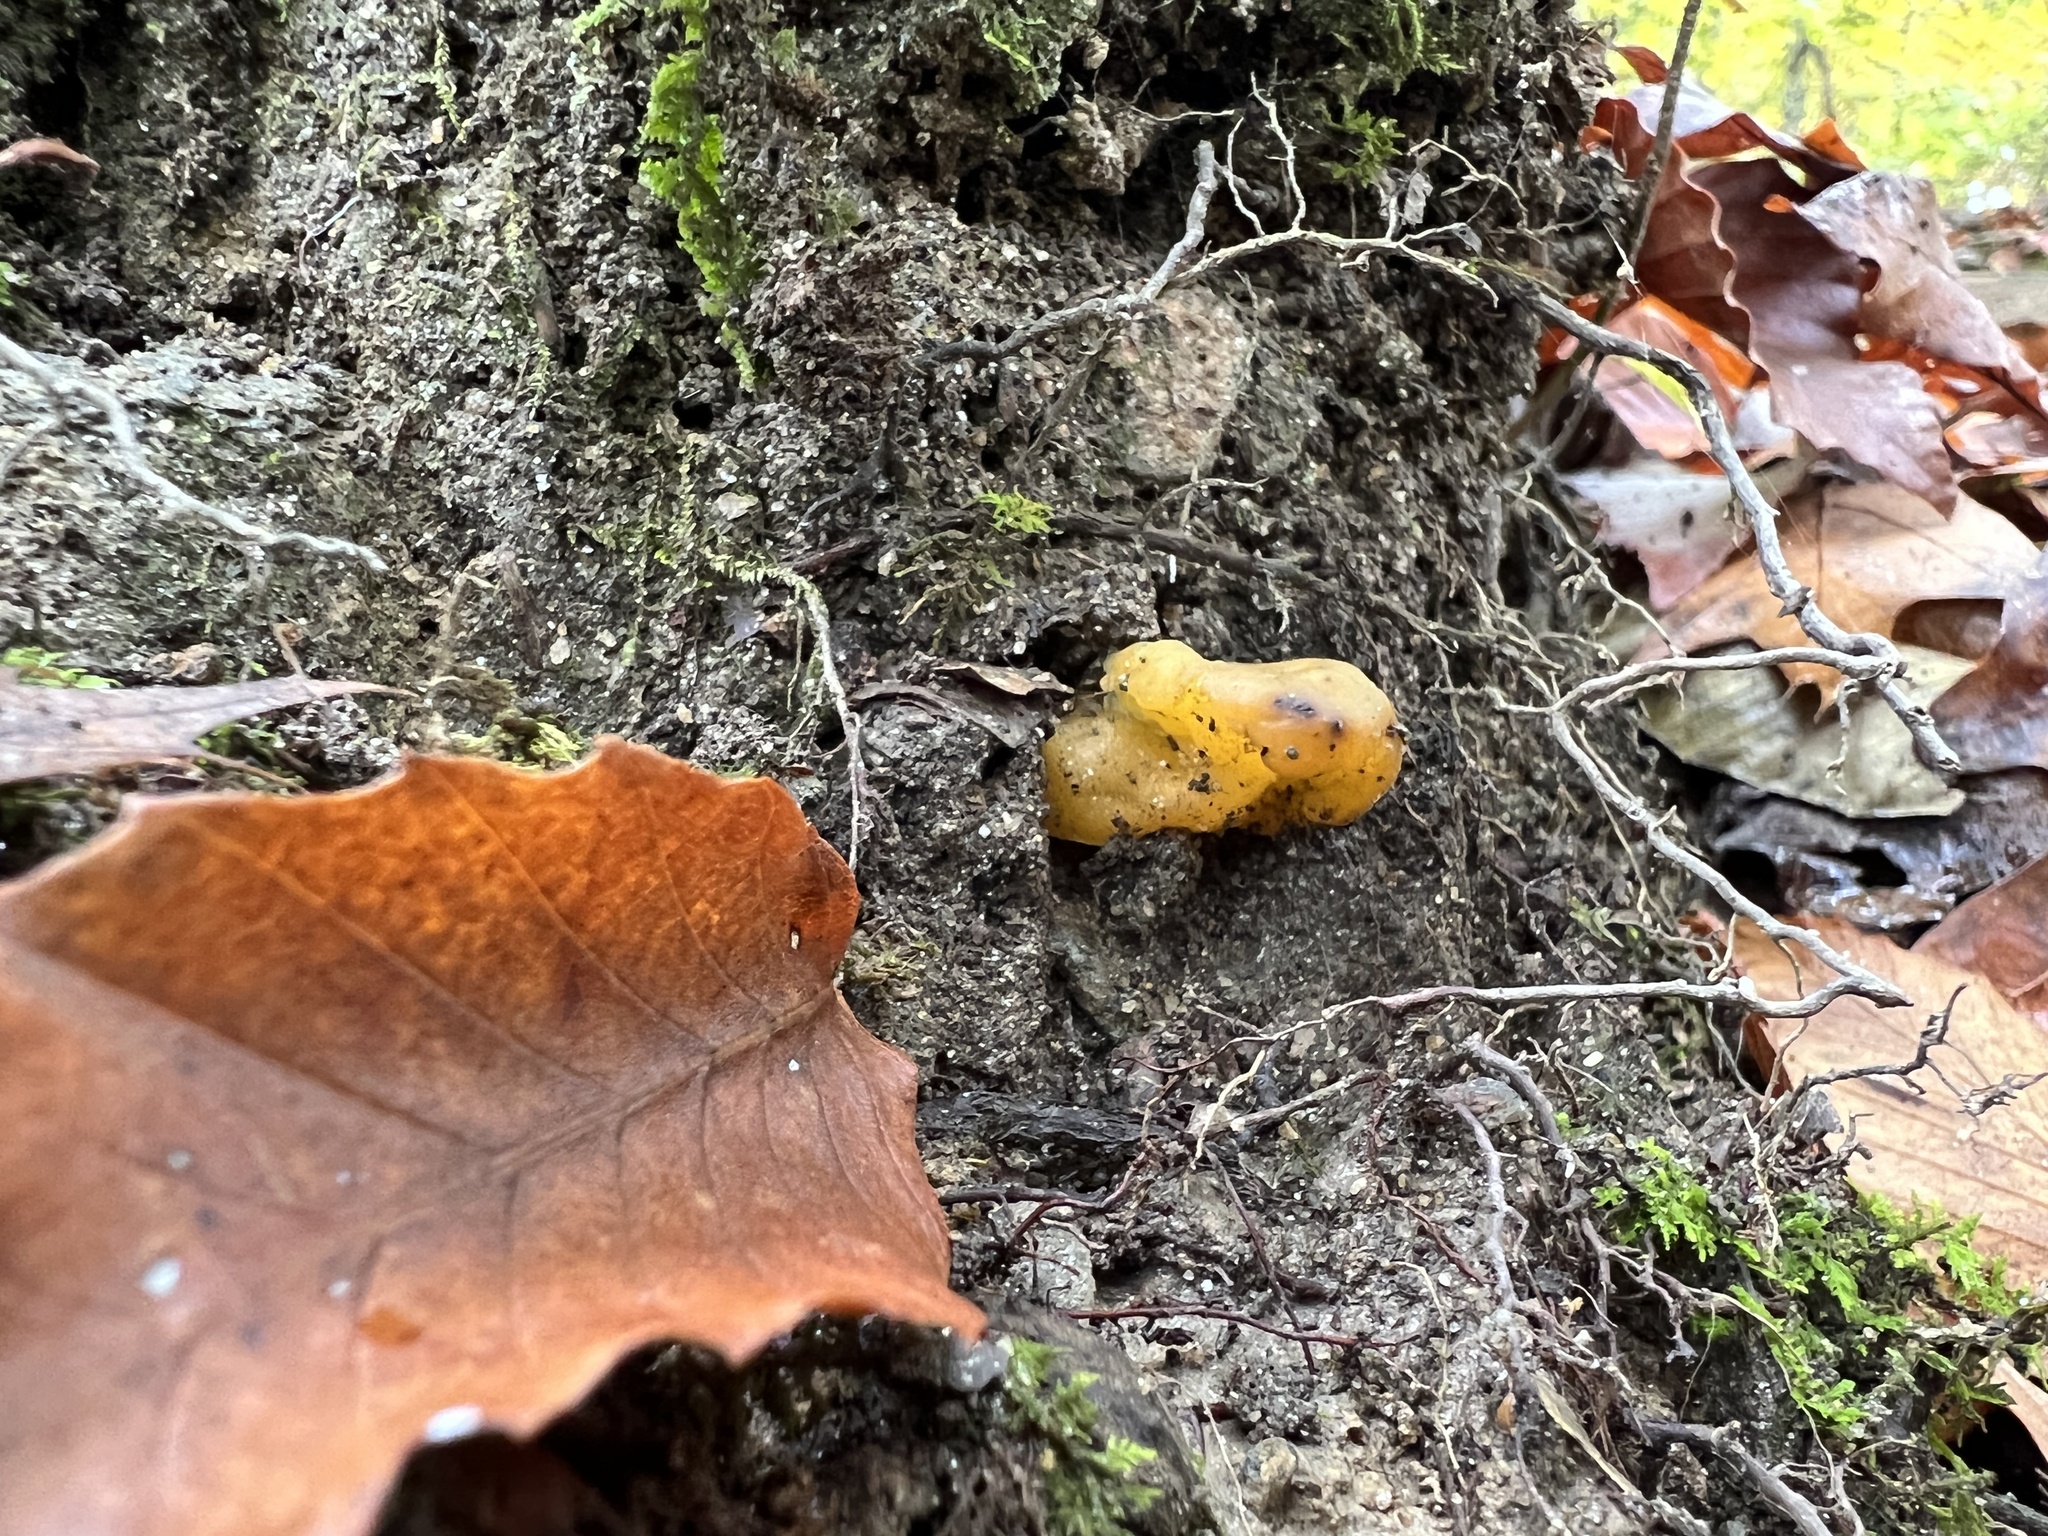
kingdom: Fungi
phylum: Ascomycota
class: Leotiomycetes
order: Leotiales
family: Leotiaceae
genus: Leotia
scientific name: Leotia lubrica
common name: Jellybaby
